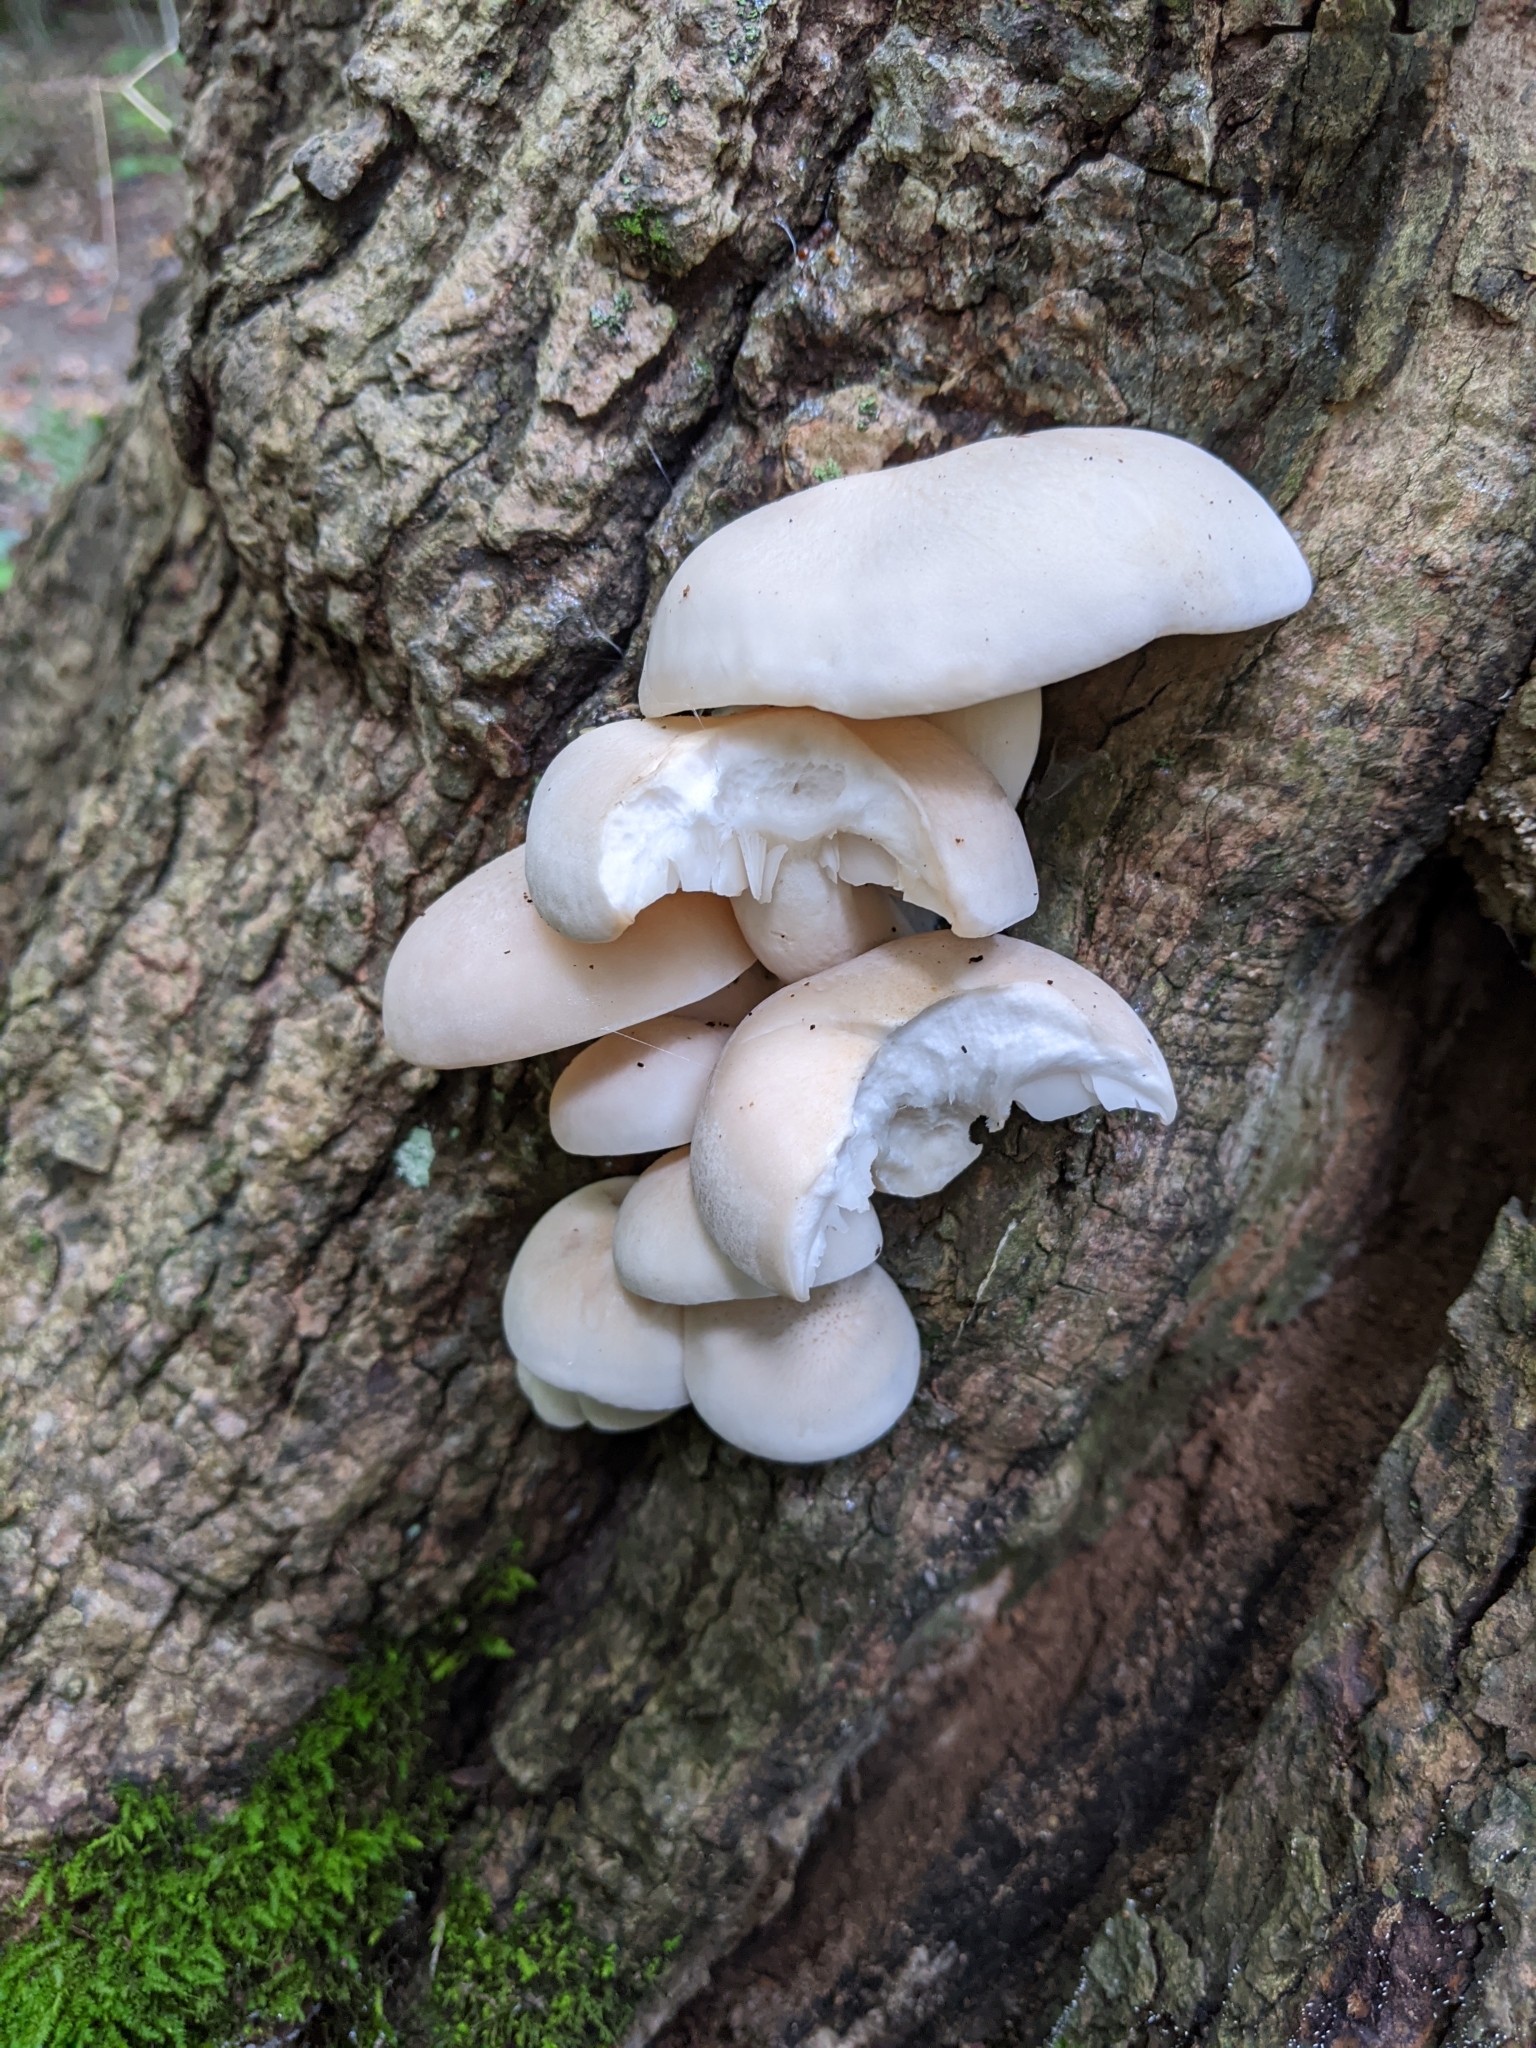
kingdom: Fungi
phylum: Basidiomycota
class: Agaricomycetes
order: Agaricales
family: Lyophyllaceae
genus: Hypsizygus
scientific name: Hypsizygus tessulatus
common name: Beech mushroom
